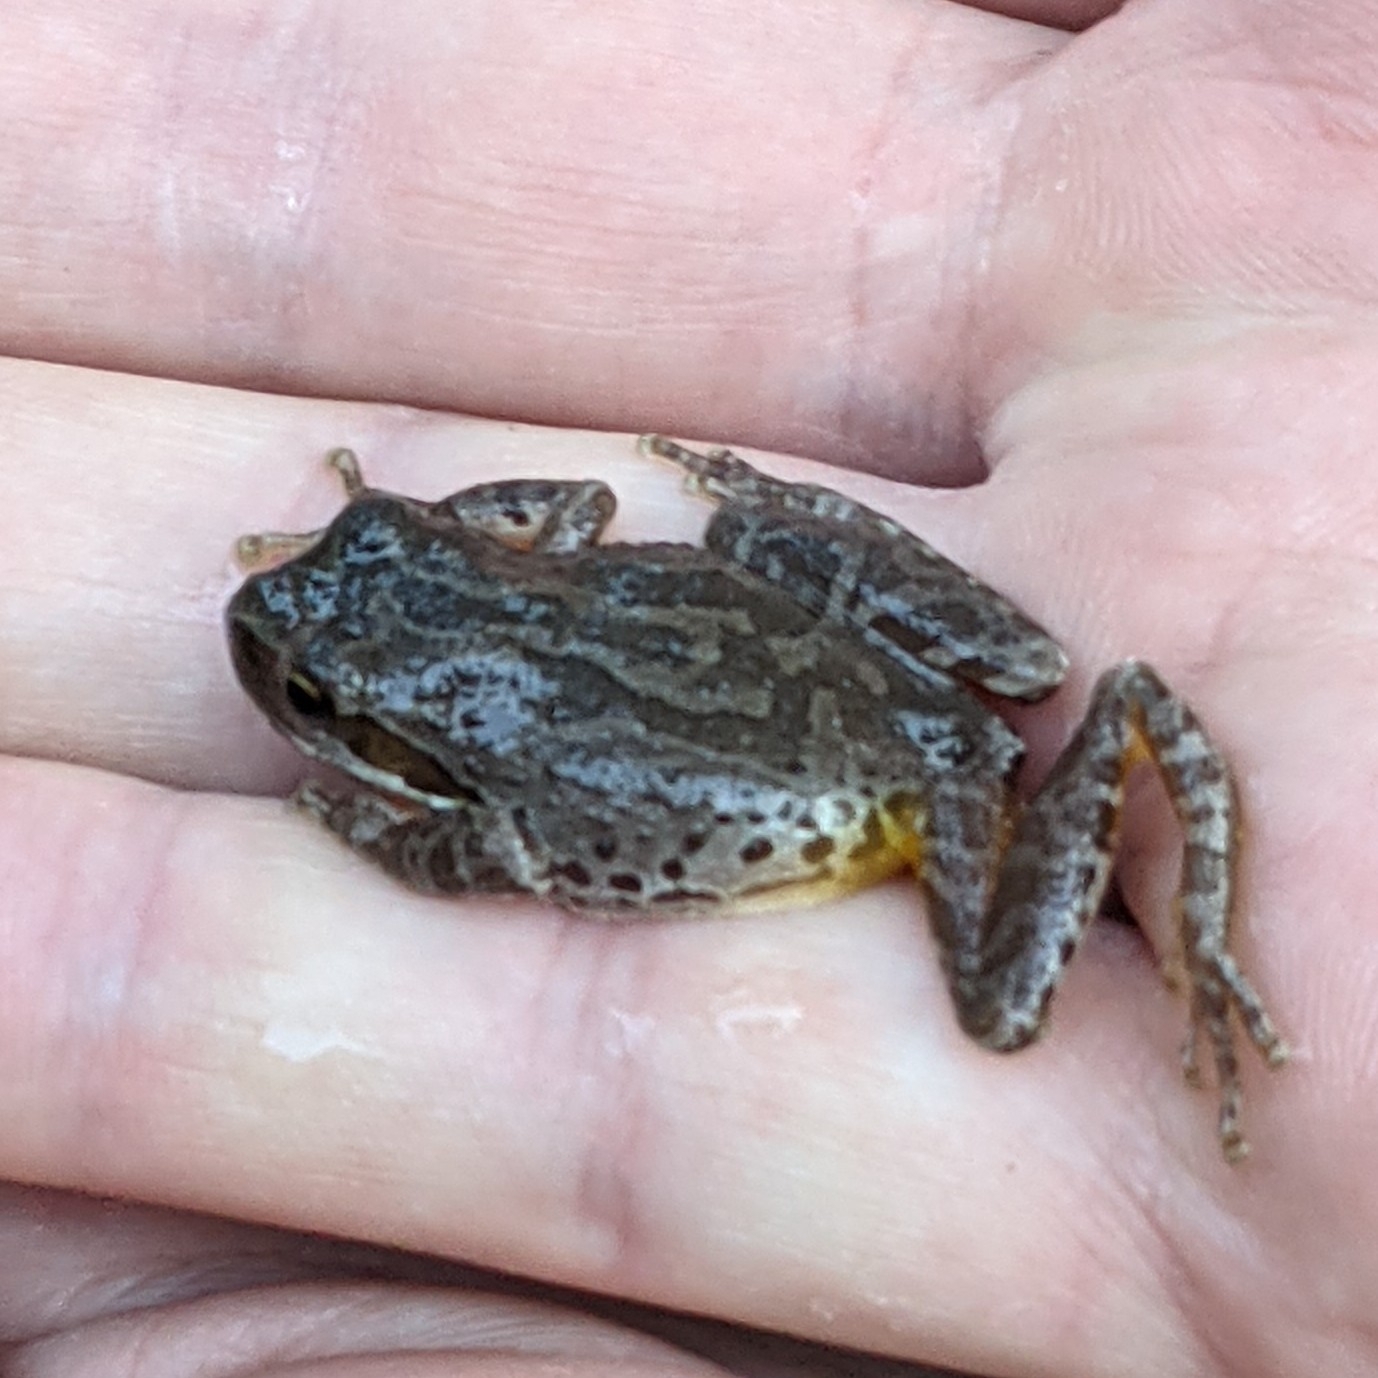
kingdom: Animalia
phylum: Chordata
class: Amphibia
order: Anura
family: Hylidae
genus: Pseudacris
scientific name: Pseudacris regilla
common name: Pacific chorus frog
